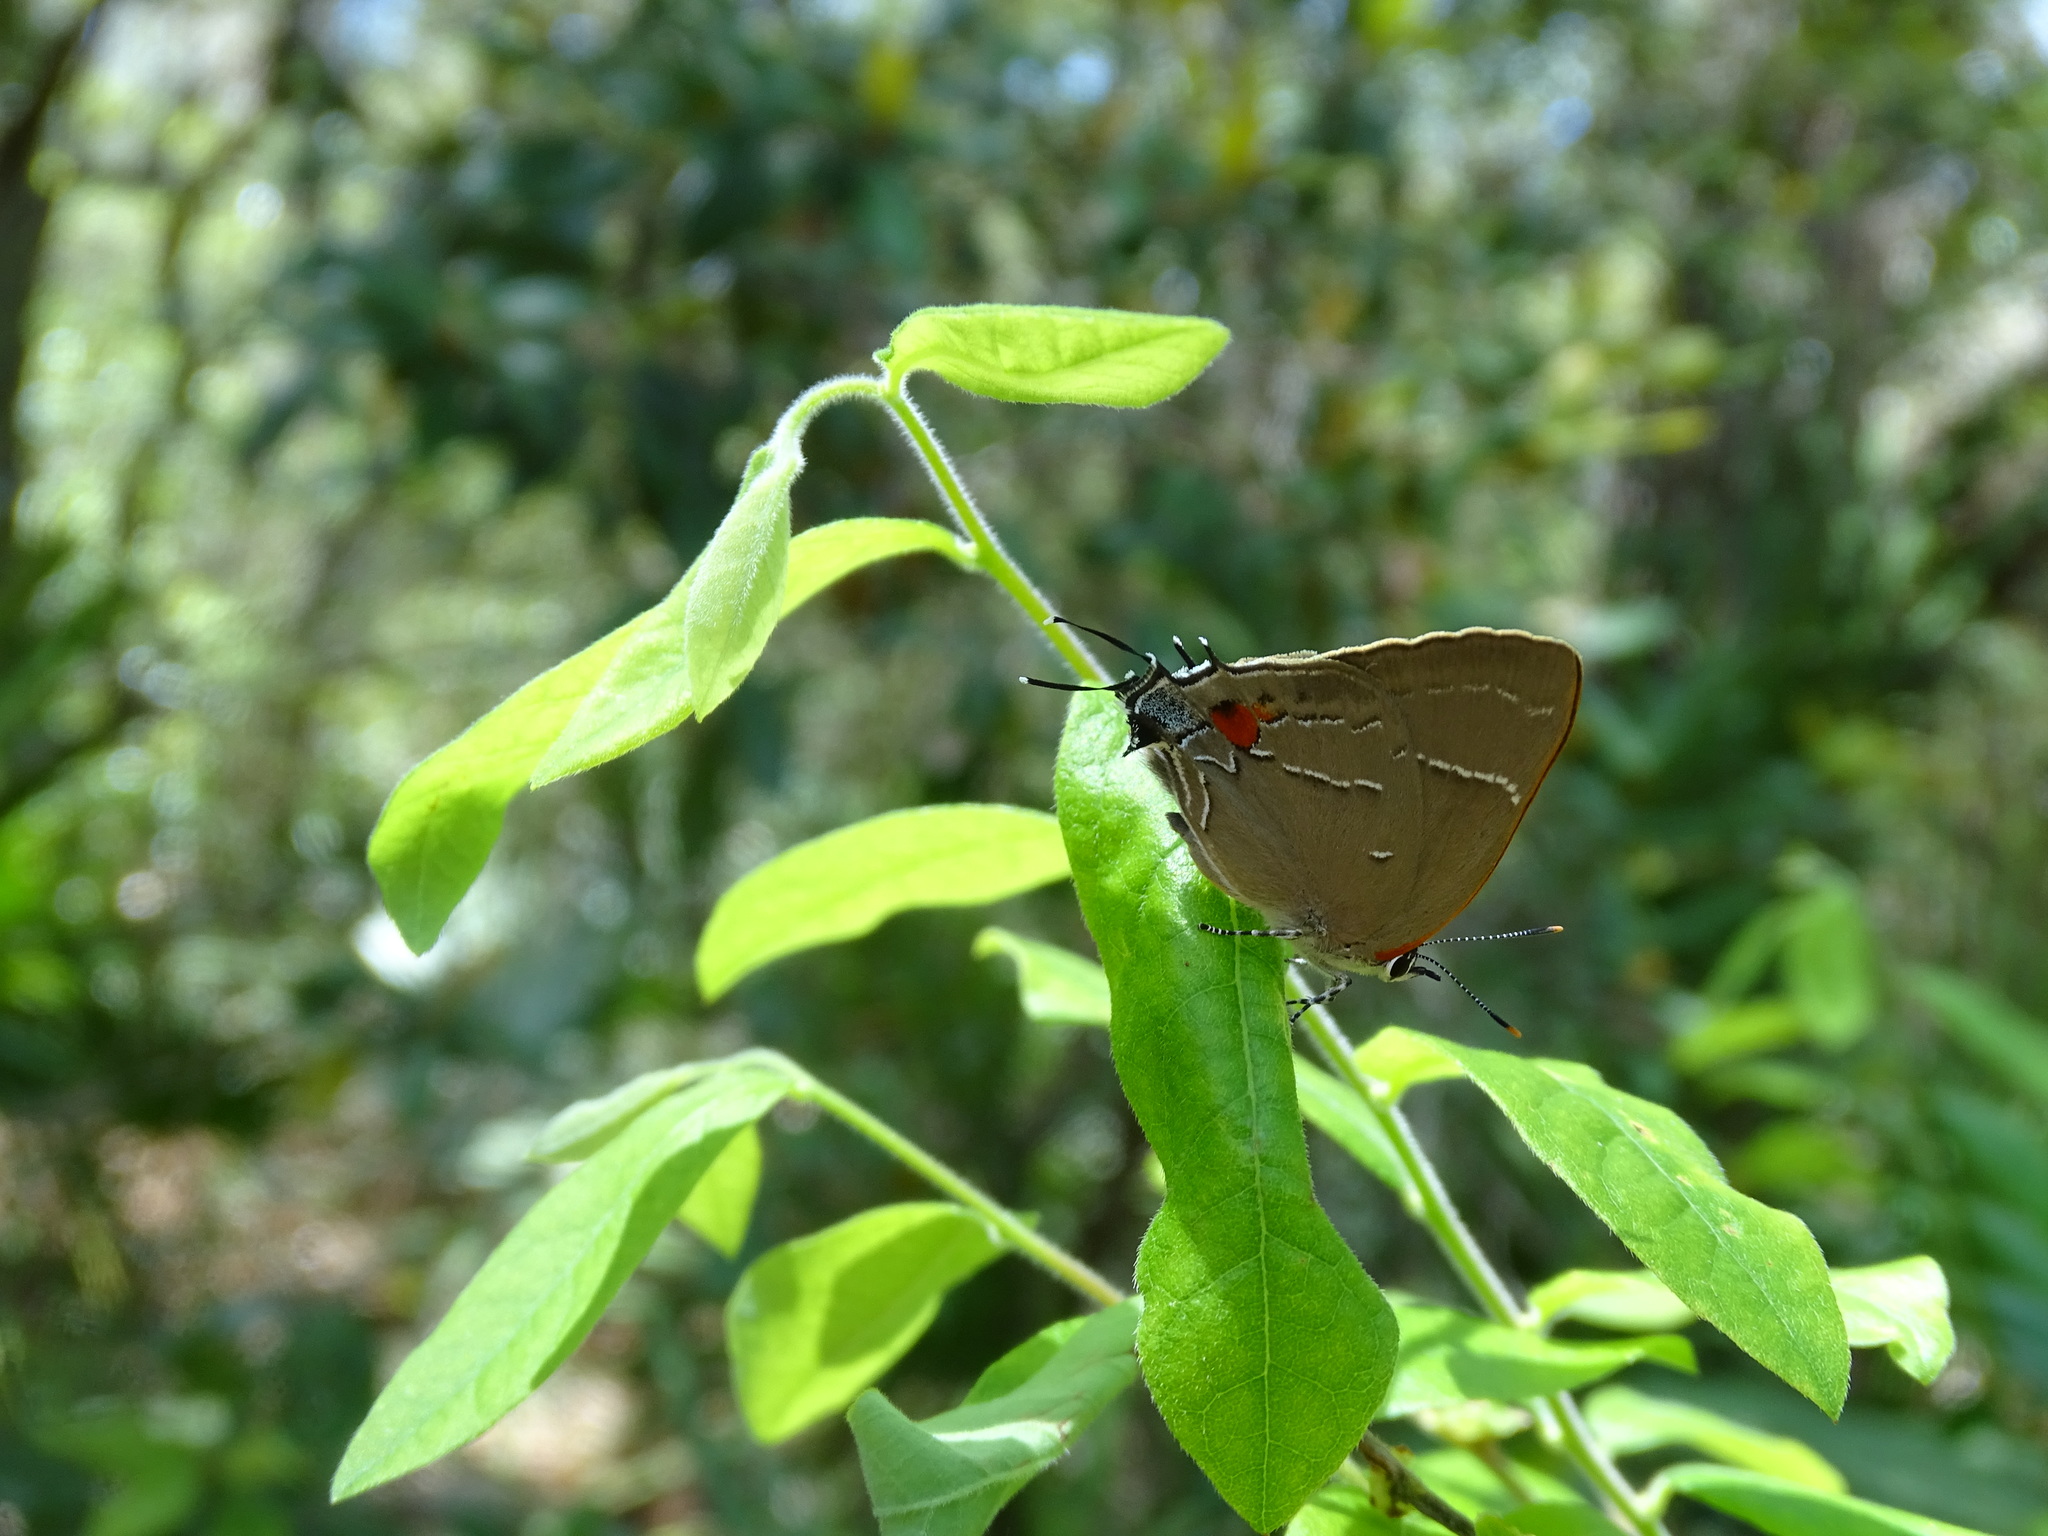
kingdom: Animalia
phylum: Arthropoda
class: Insecta
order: Lepidoptera
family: Lycaenidae
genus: Parrhasius
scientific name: Parrhasius m-album
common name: White m hairstreak
